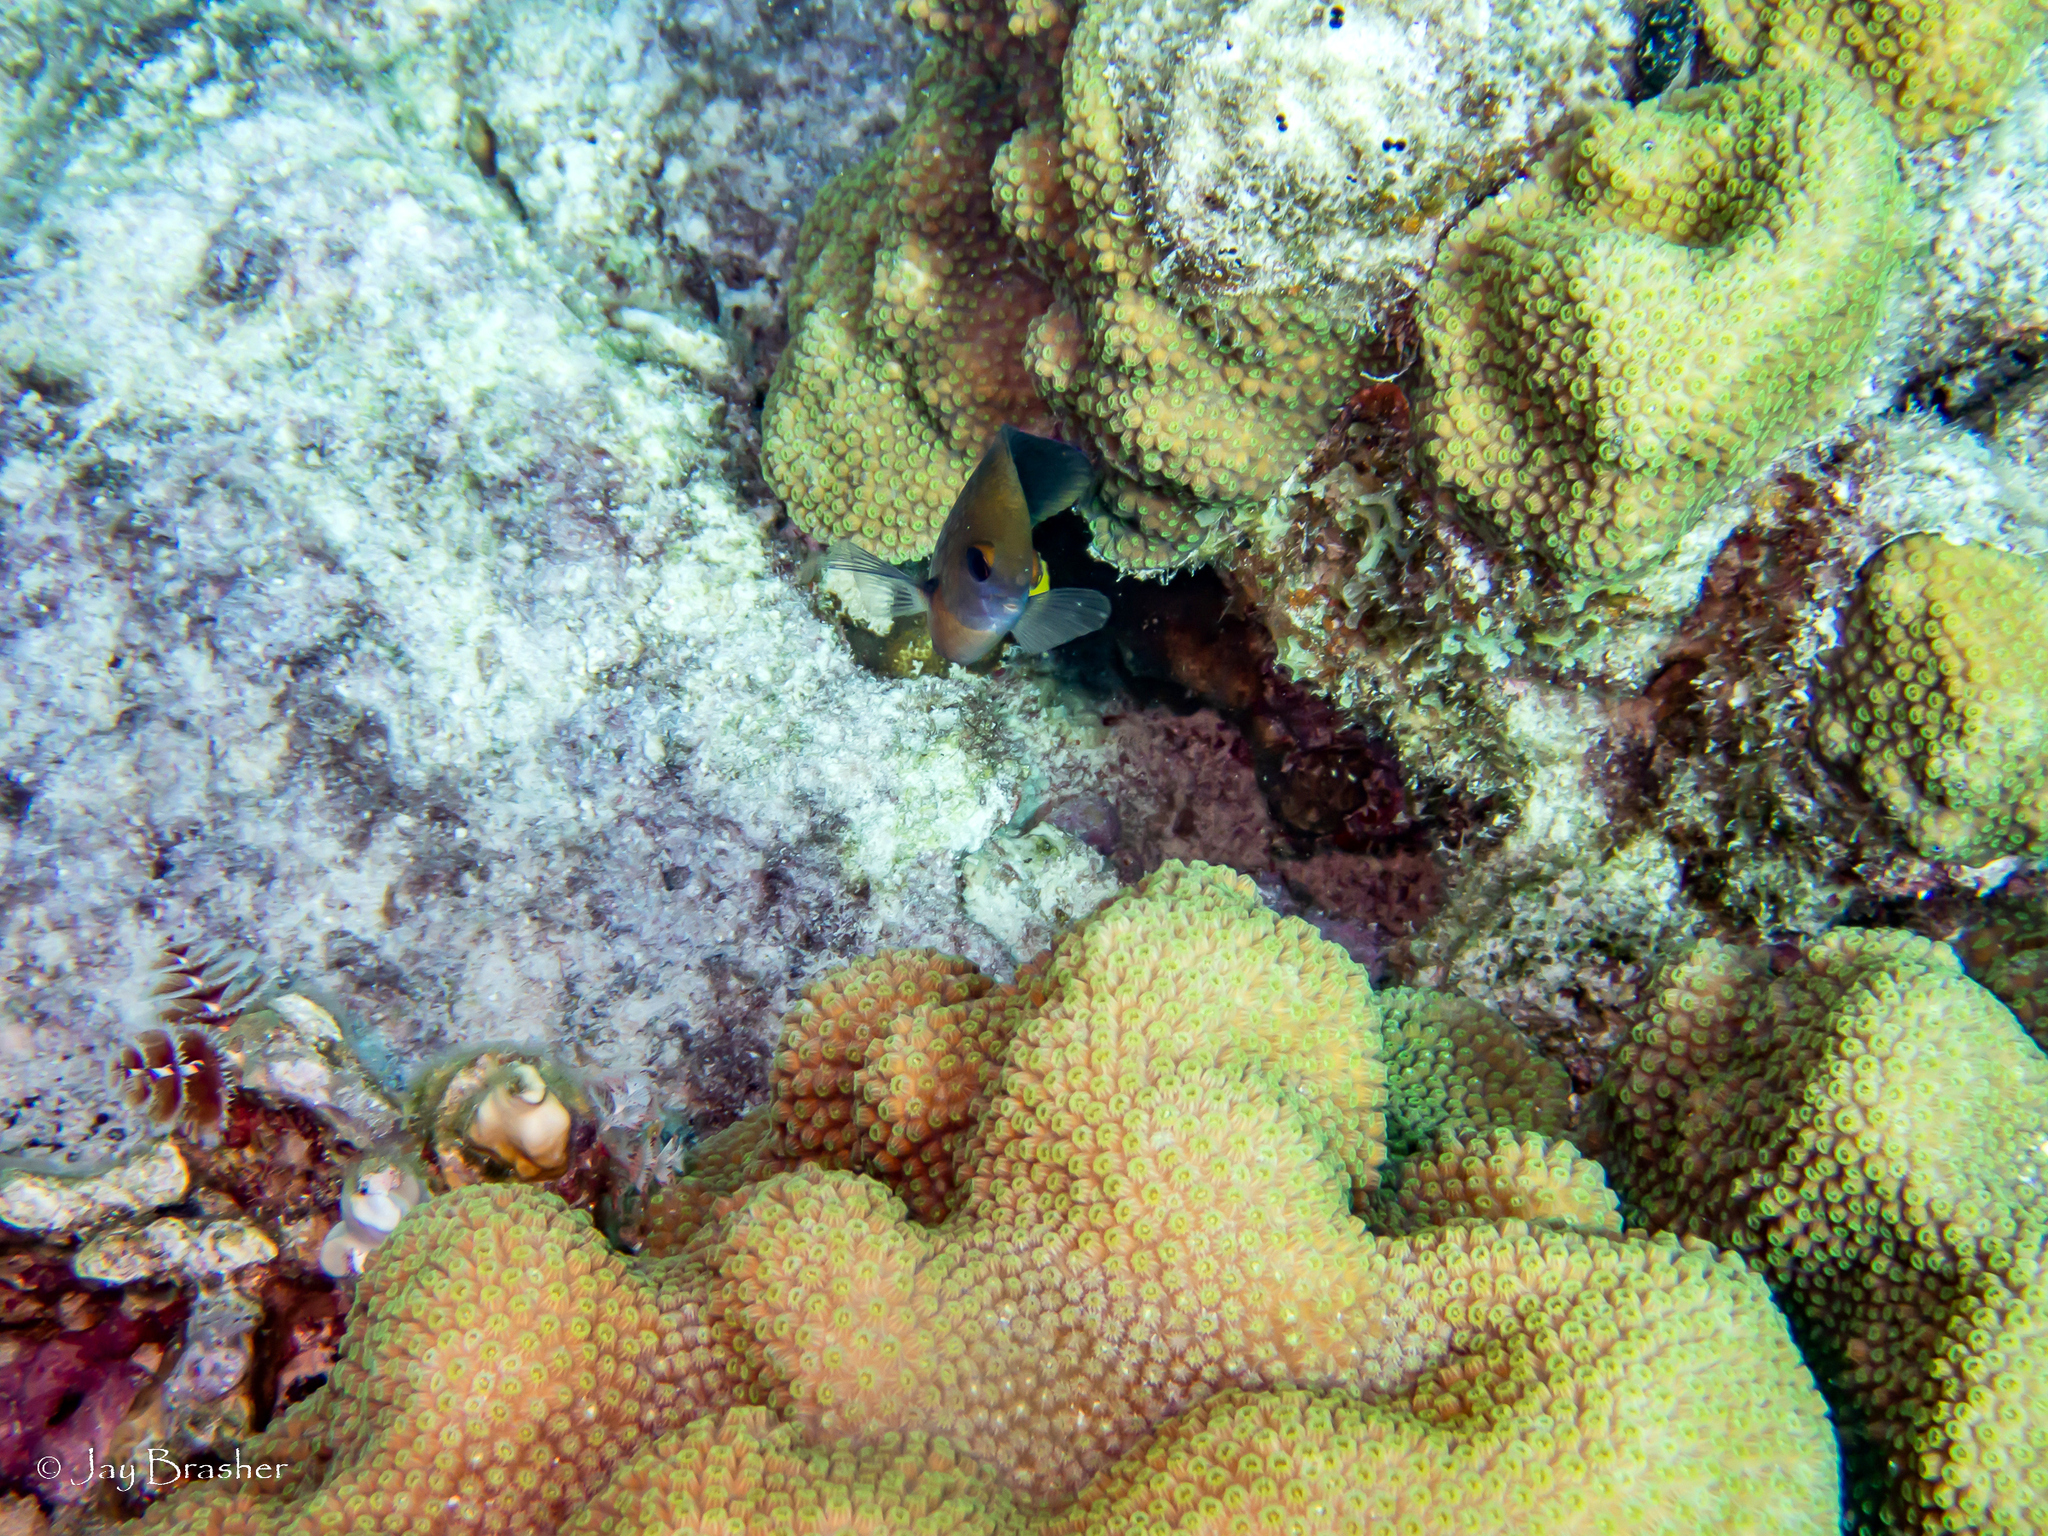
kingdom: Animalia
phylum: Chordata
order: Perciformes
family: Pomacentridae
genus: Stegastes
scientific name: Stegastes planifrons
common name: Threespot damselfish
